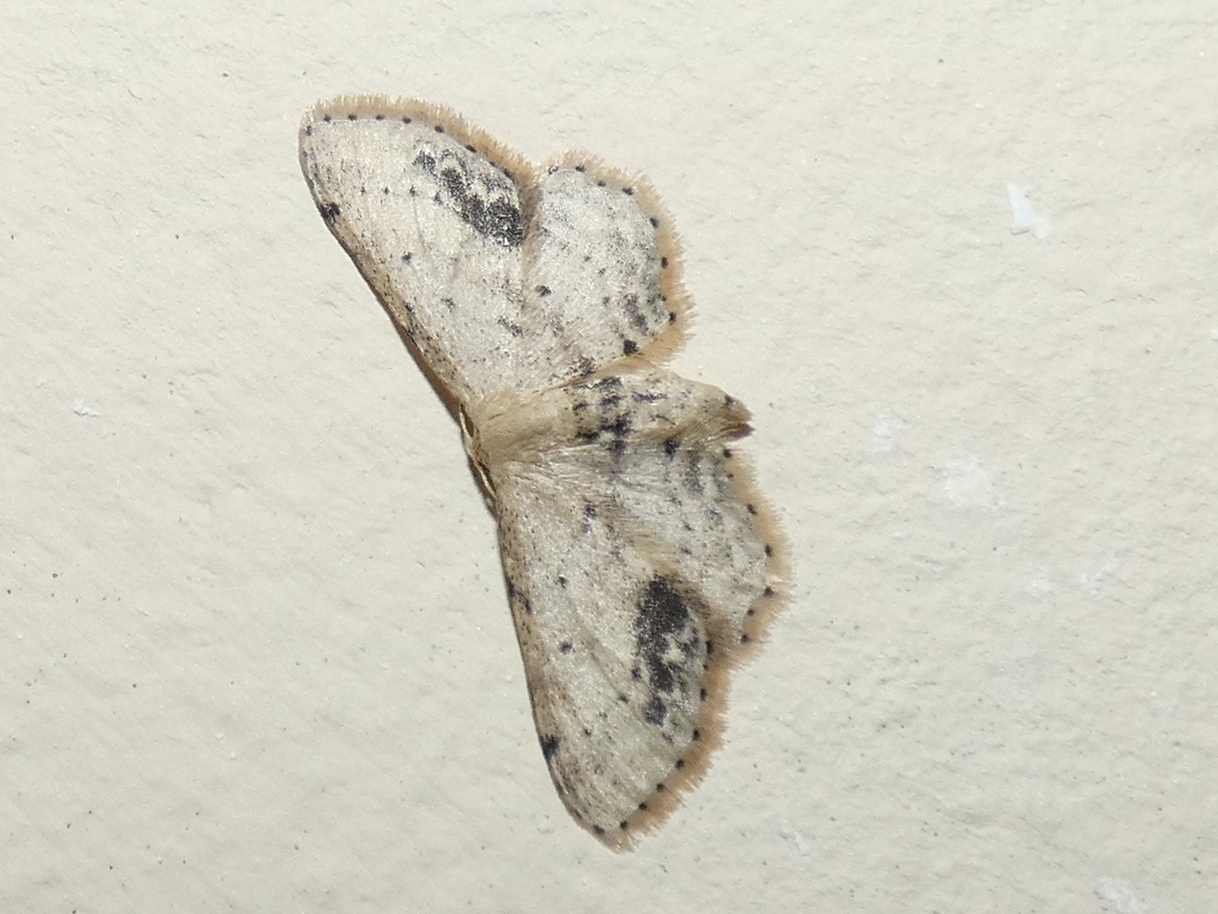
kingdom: Animalia
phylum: Arthropoda
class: Insecta
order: Lepidoptera
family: Geometridae
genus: Idaea
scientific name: Idaea dimidiata
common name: Single-dotted wave
